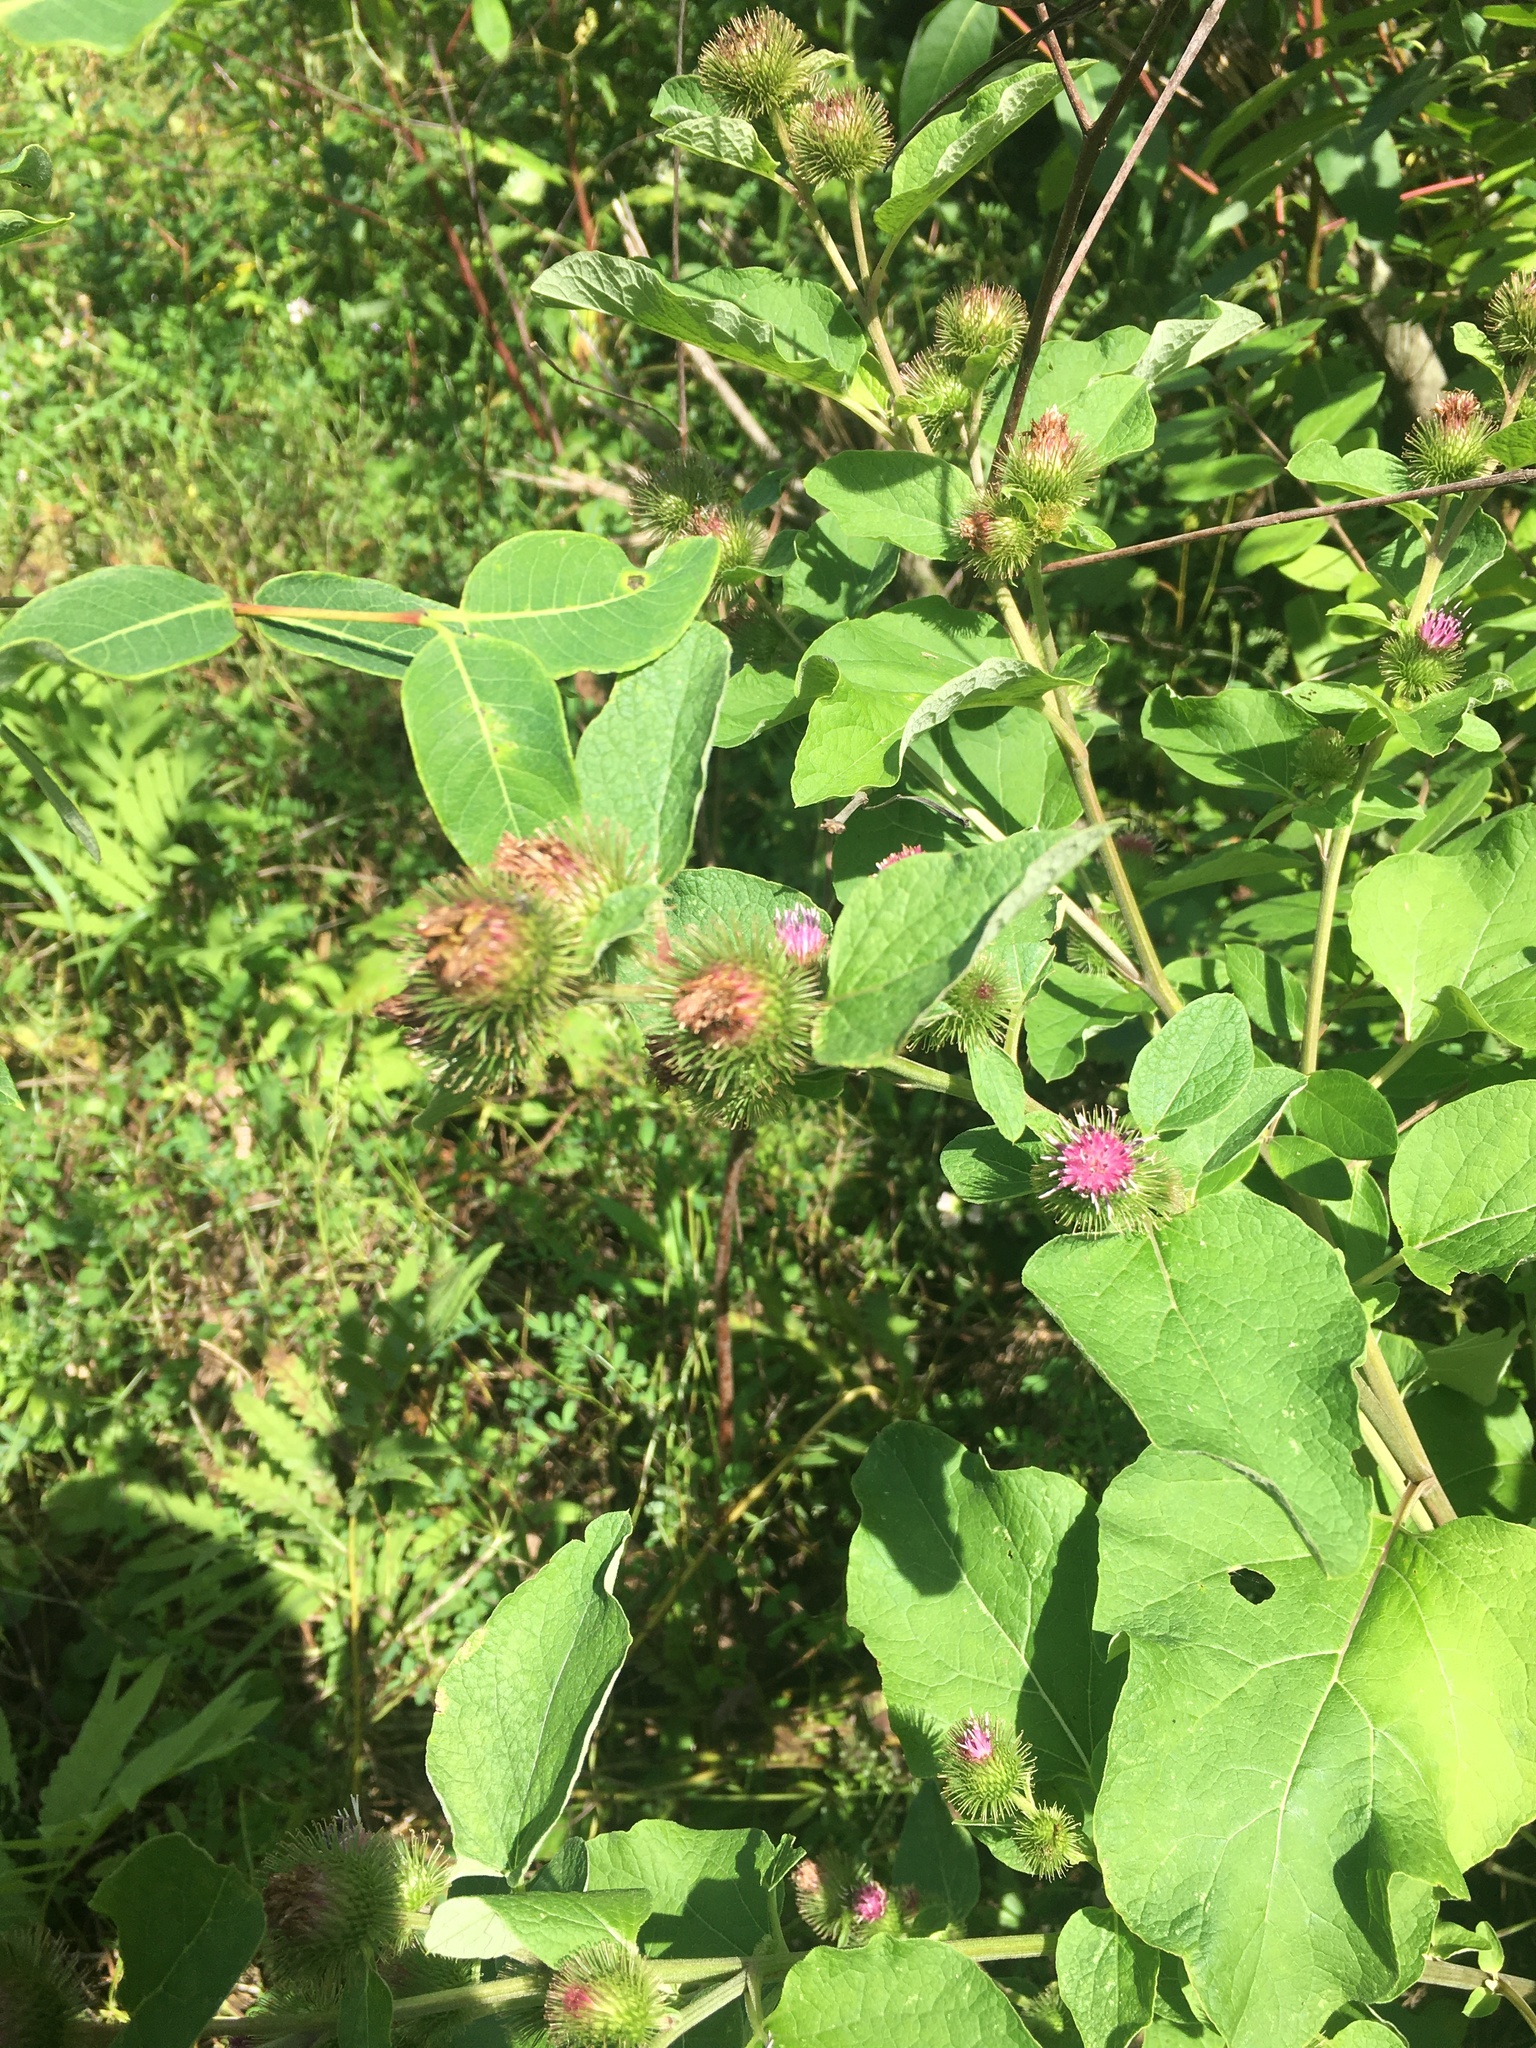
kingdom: Plantae
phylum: Tracheophyta
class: Magnoliopsida
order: Asterales
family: Asteraceae
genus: Arctium
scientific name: Arctium minus
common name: Lesser burdock
